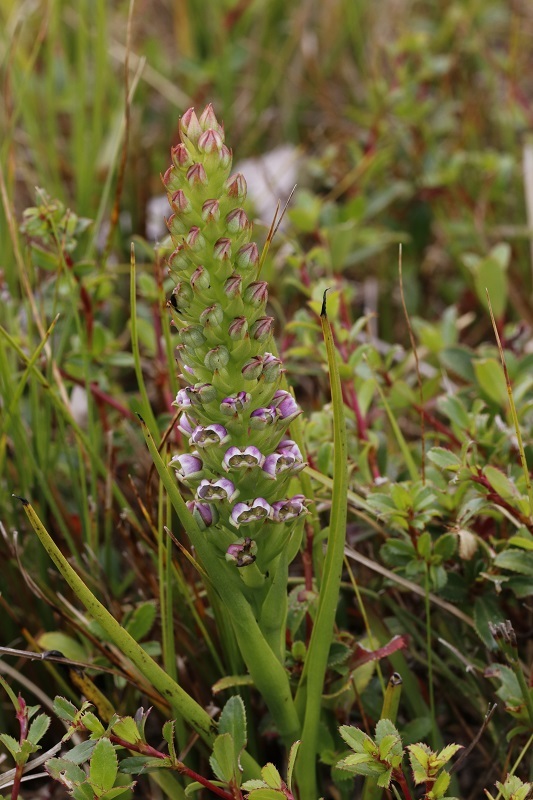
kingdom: Plantae
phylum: Tracheophyta
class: Liliopsida
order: Asparagales
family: Orchidaceae
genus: Evotella
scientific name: Evotella carnosa
